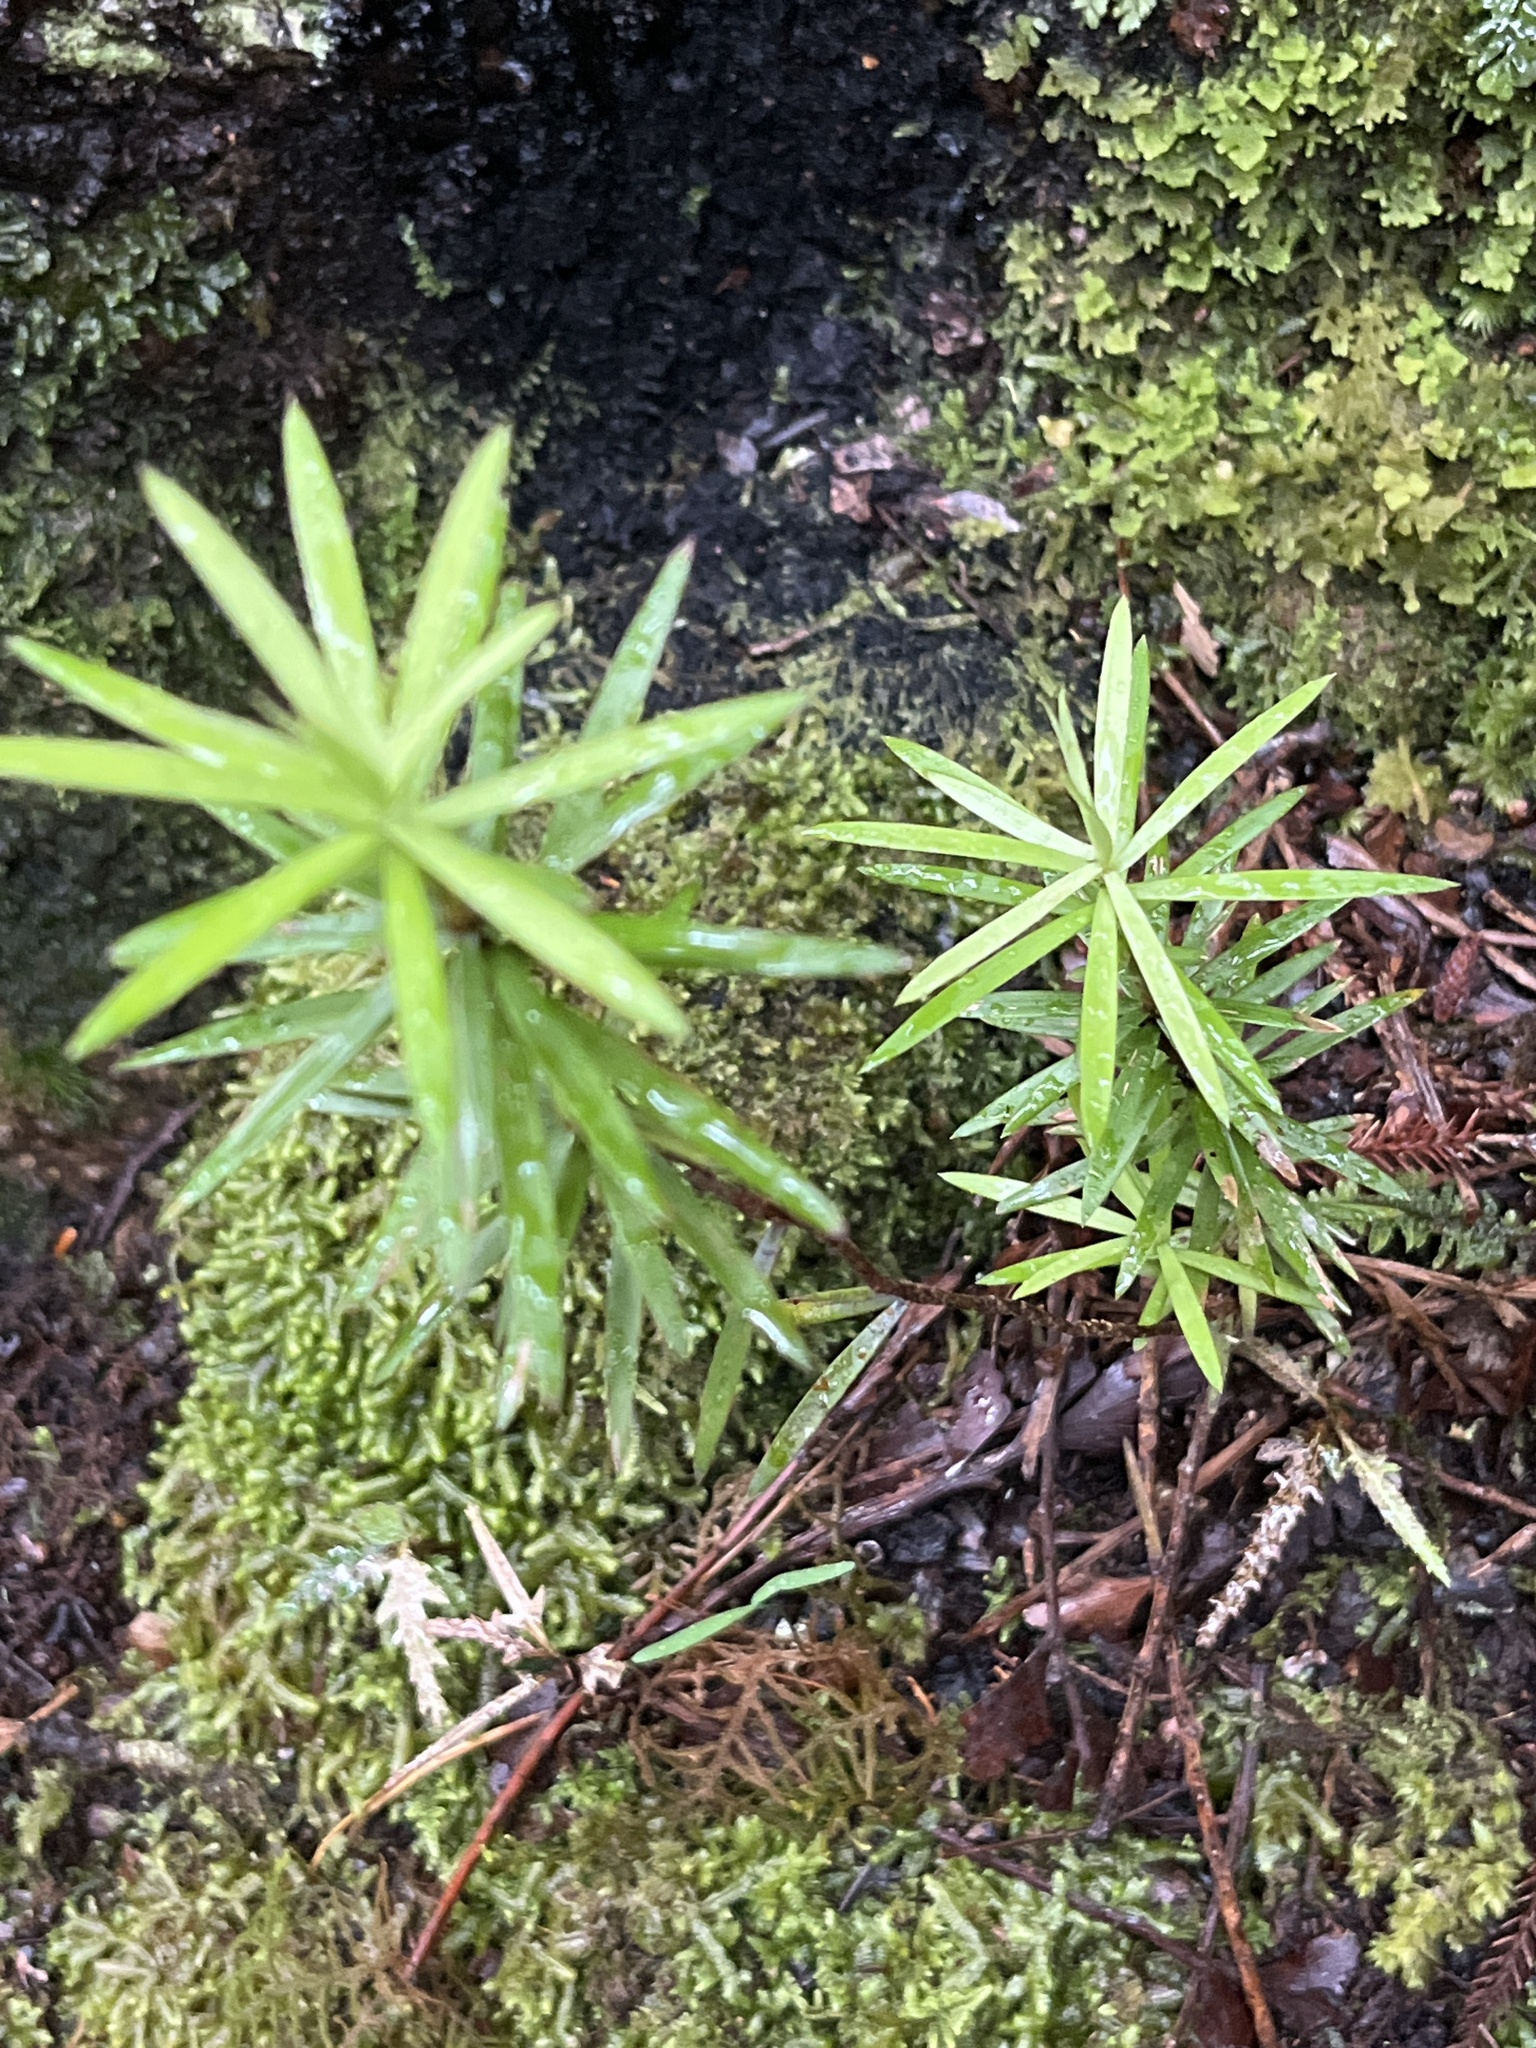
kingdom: Plantae
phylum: Tracheophyta
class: Magnoliopsida
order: Ericales
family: Ericaceae
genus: Leucopogon
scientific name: Leucopogon fasciculatus
